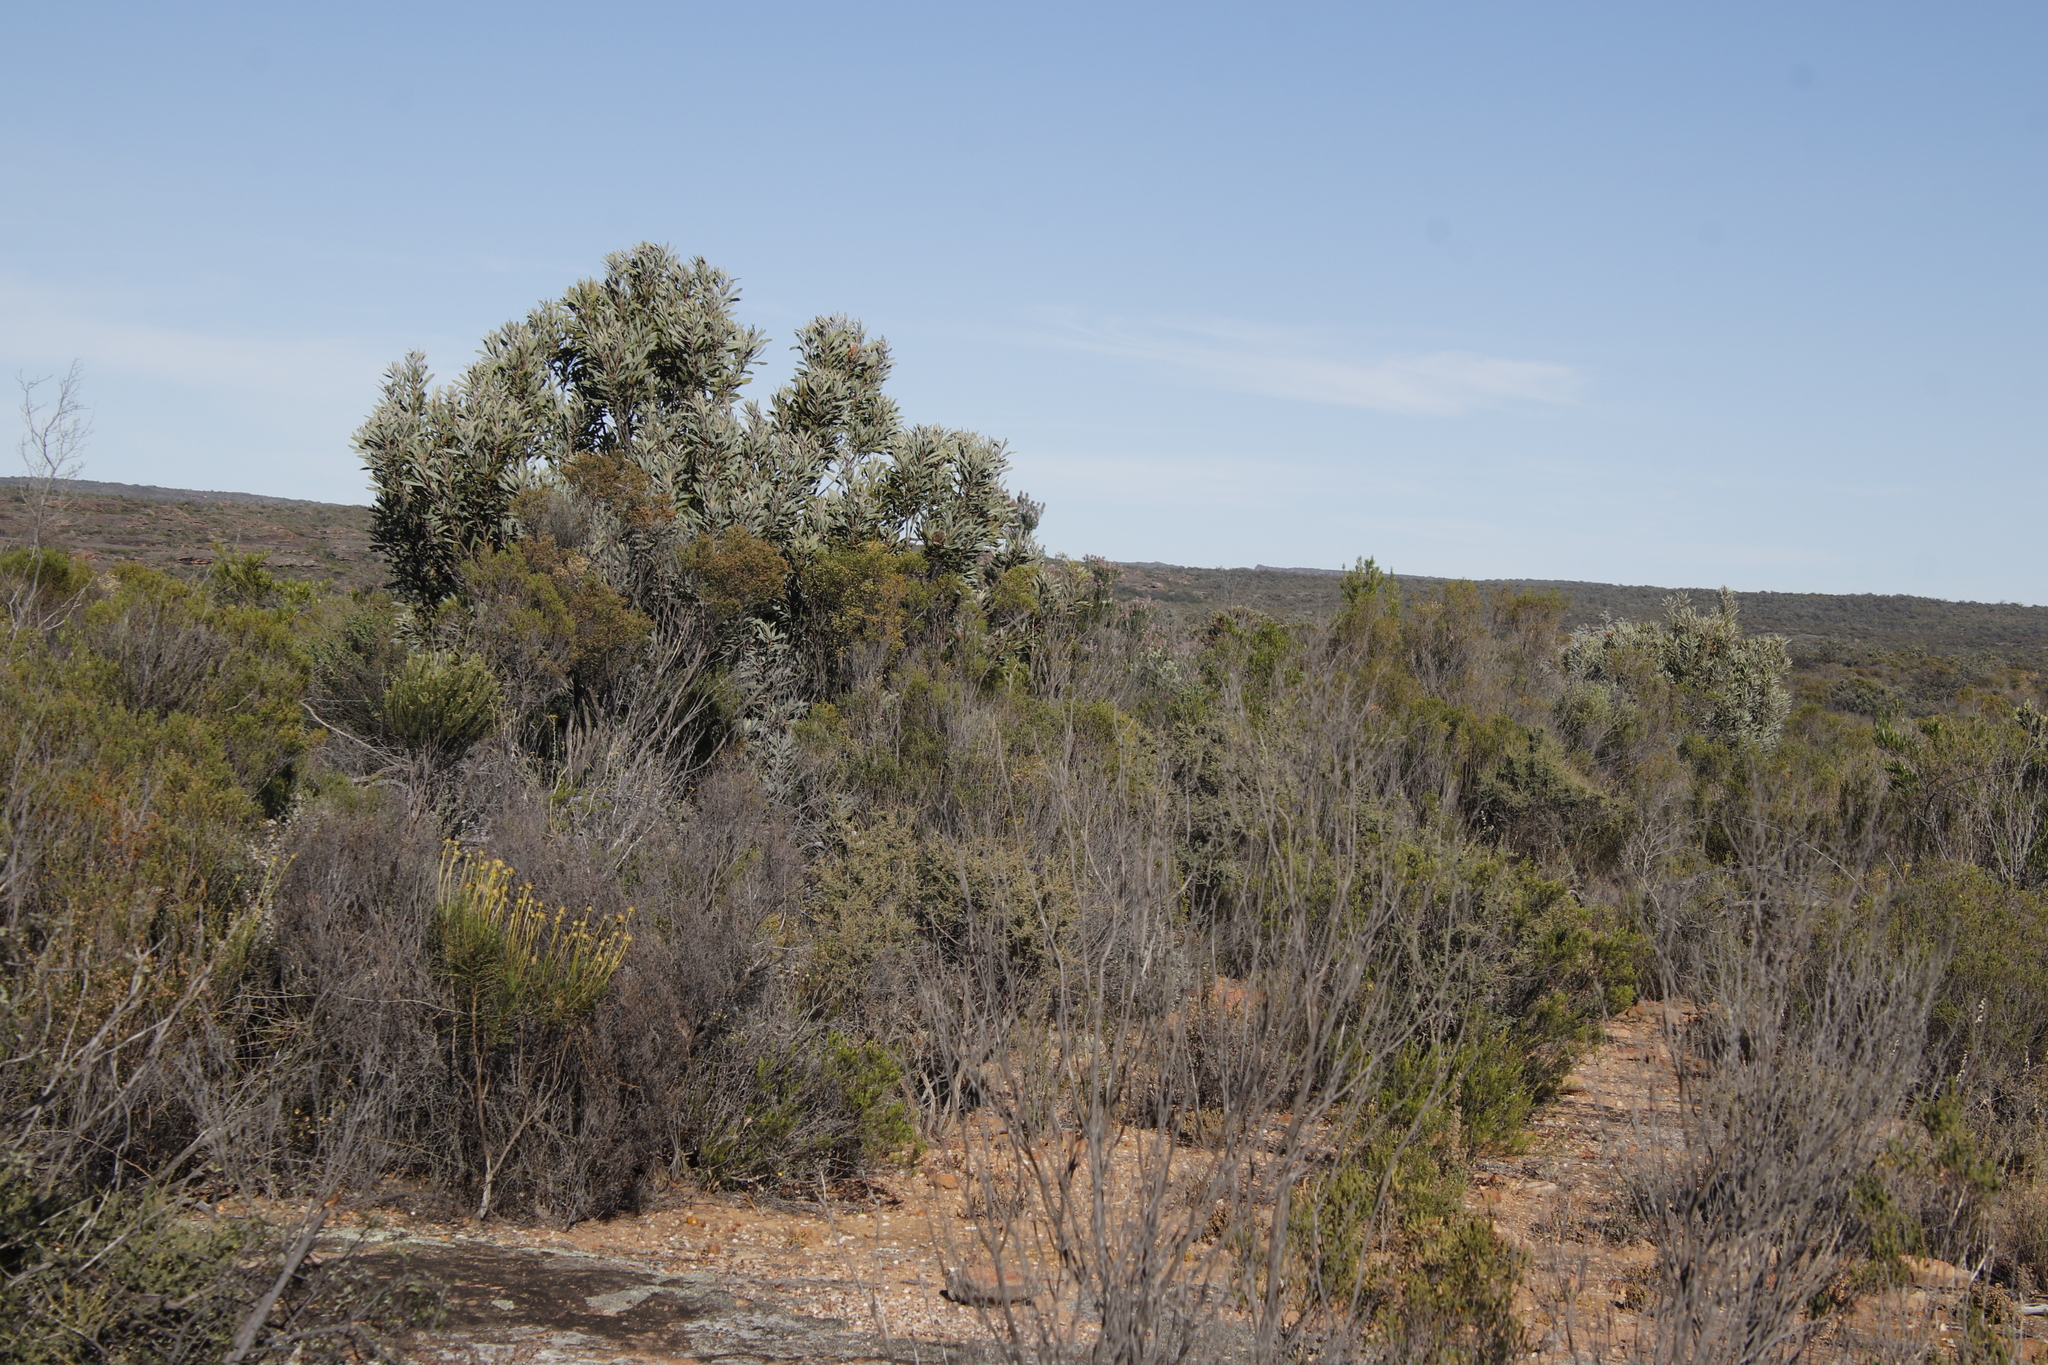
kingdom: Plantae
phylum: Tracheophyta
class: Magnoliopsida
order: Proteales
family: Proteaceae
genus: Protea
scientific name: Protea laurifolia
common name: Grey-leaf sugarbsh
